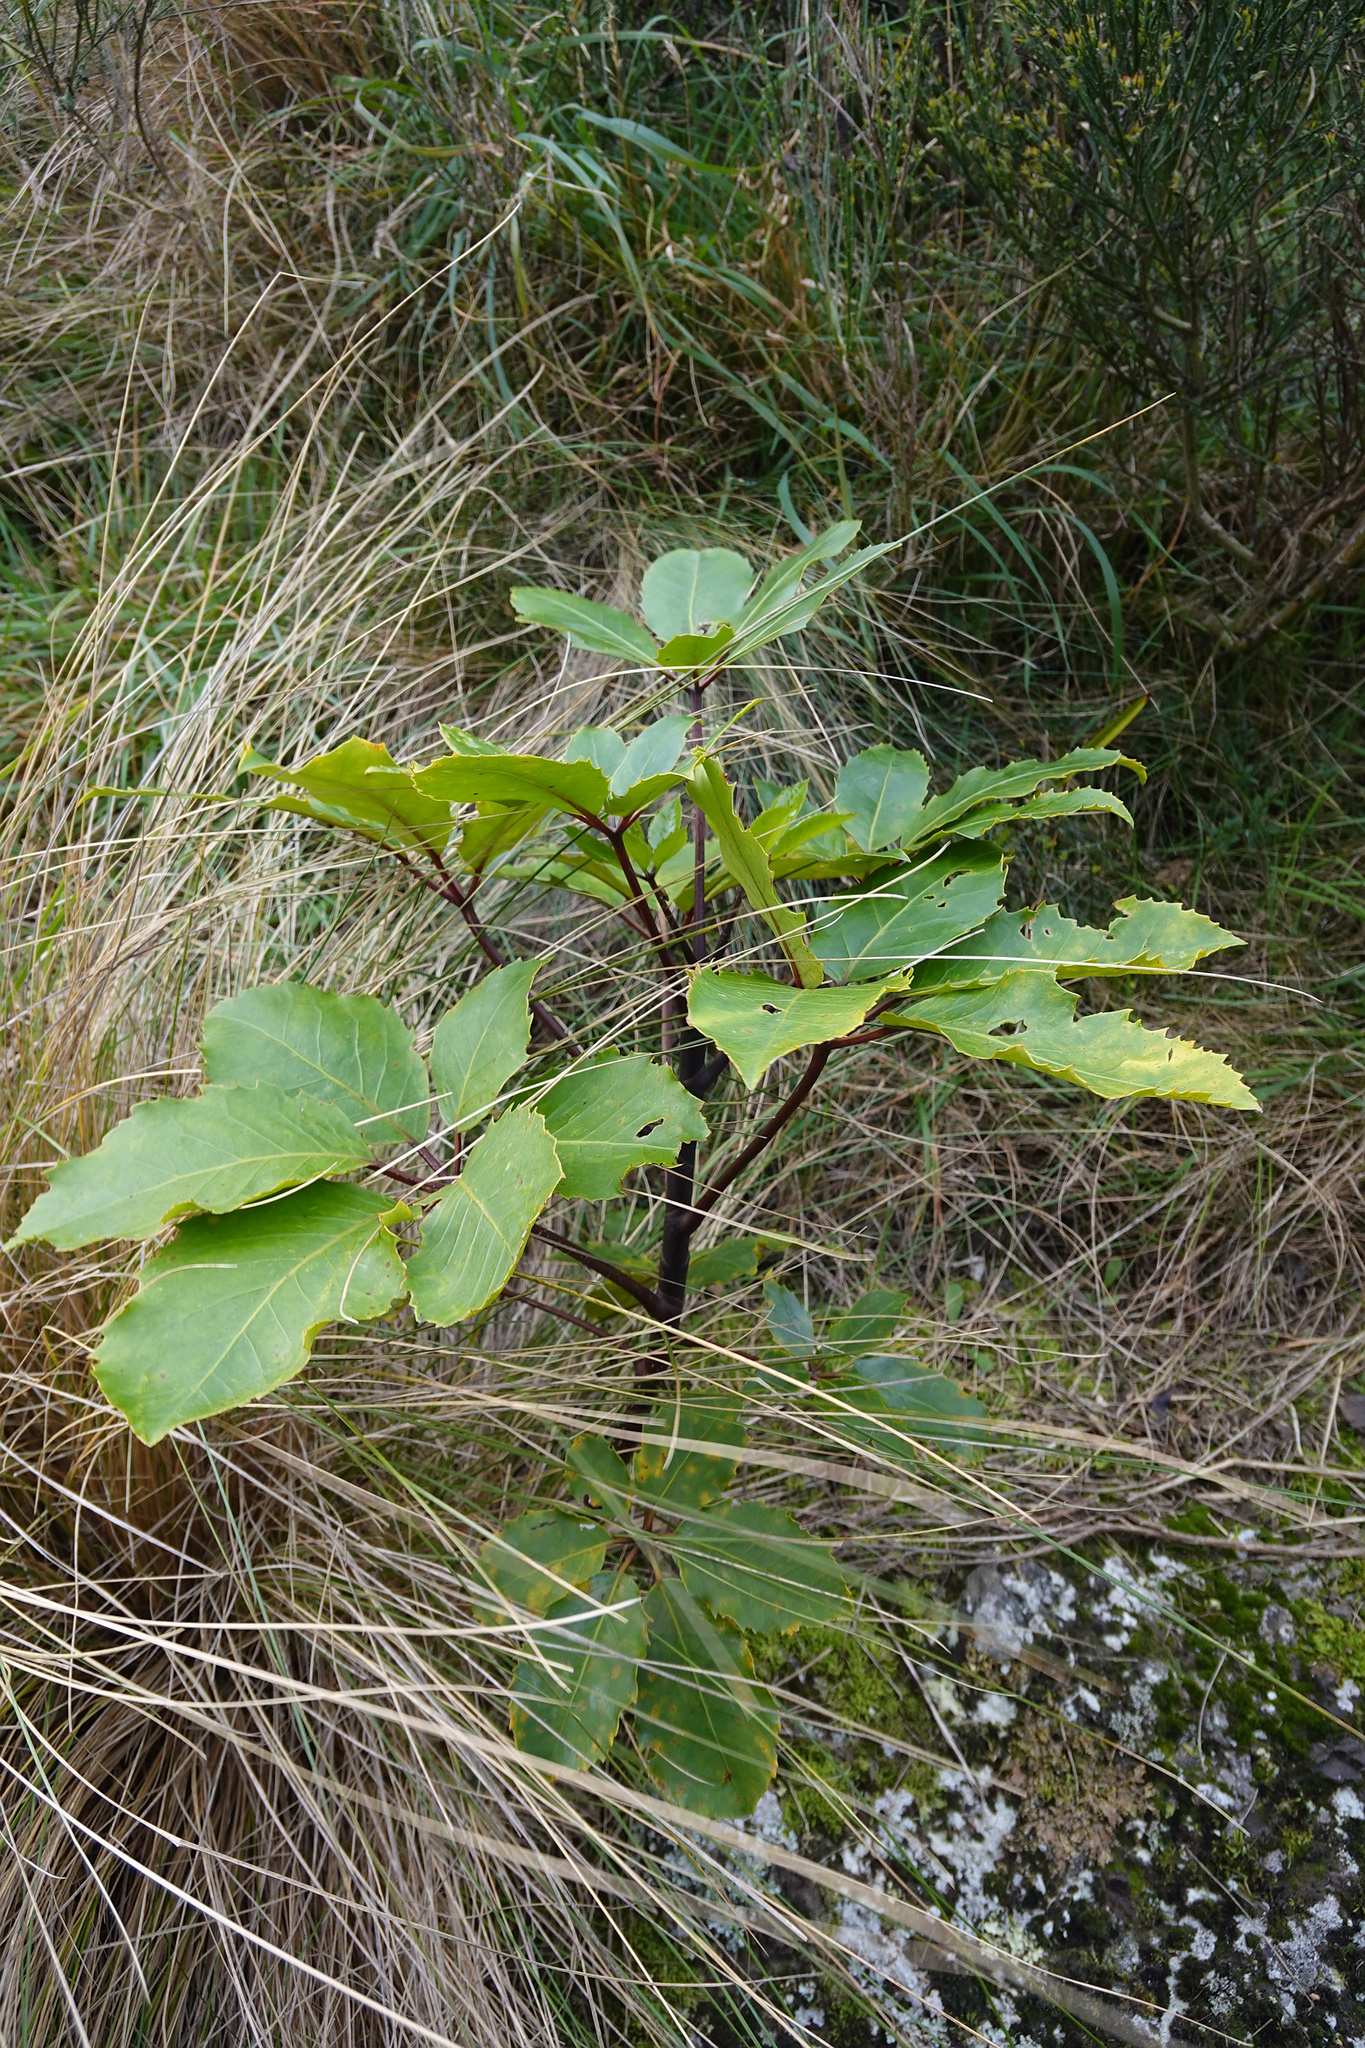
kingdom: Plantae
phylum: Tracheophyta
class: Magnoliopsida
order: Apiales
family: Araliaceae
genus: Neopanax
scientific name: Neopanax arboreus
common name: Five-fingers
